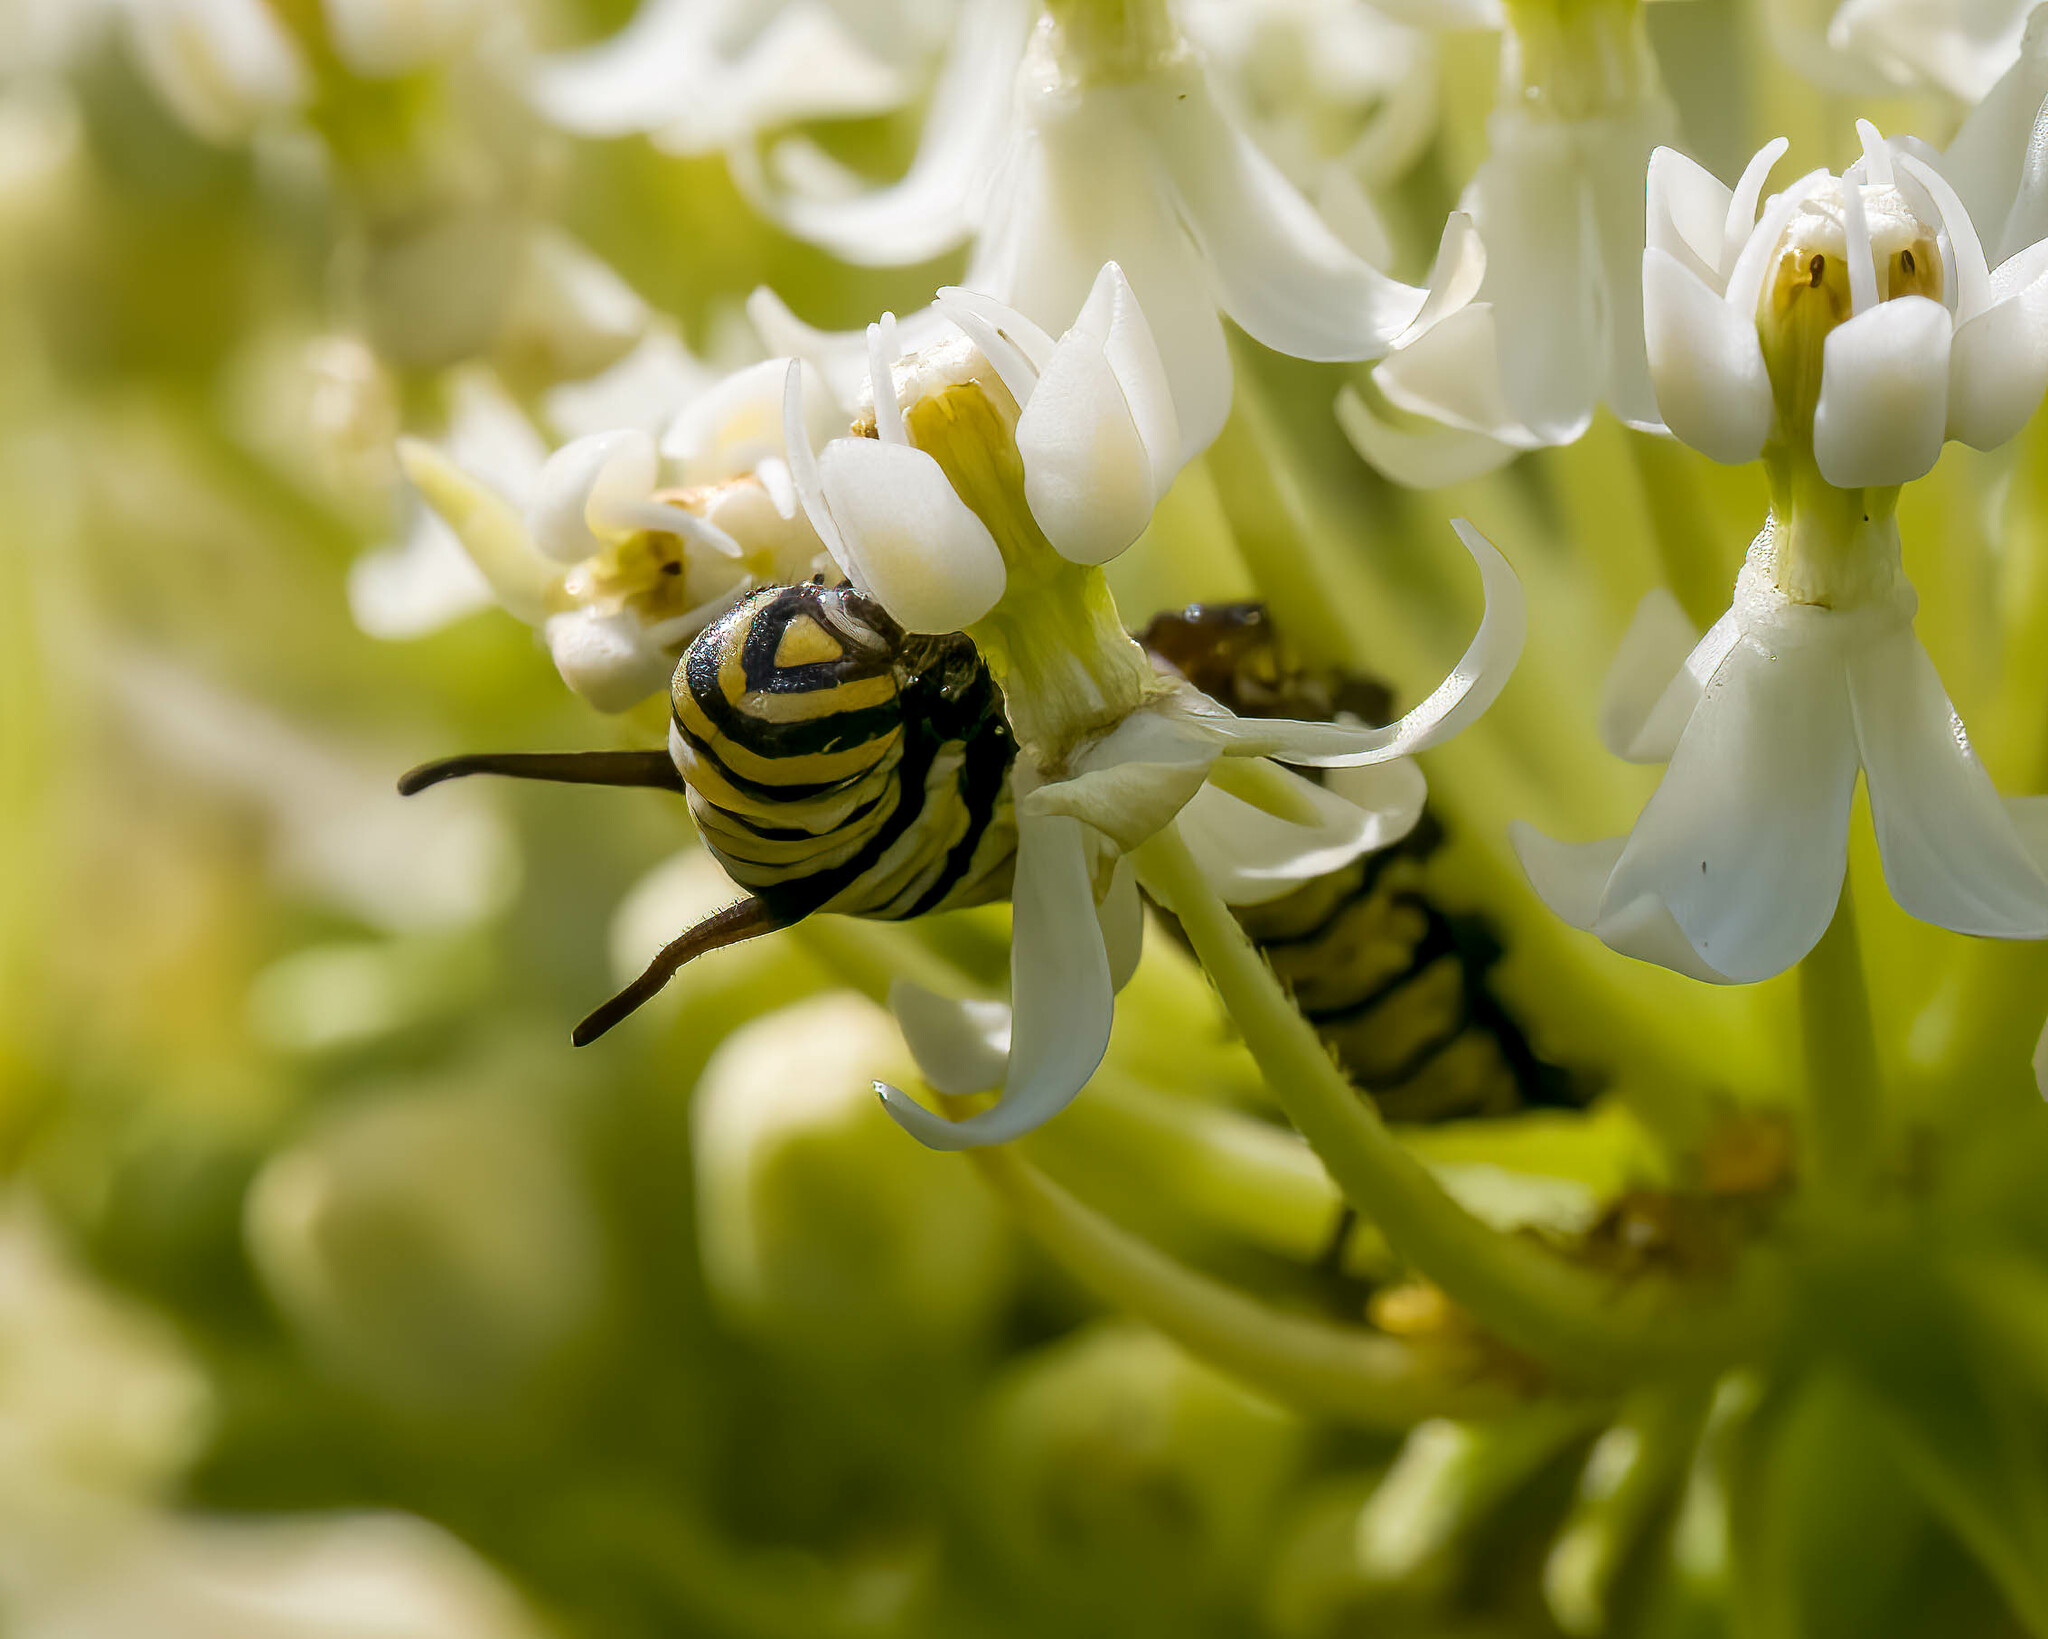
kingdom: Animalia
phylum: Arthropoda
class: Insecta
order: Lepidoptera
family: Nymphalidae
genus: Danaus
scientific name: Danaus plexippus
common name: Monarch
